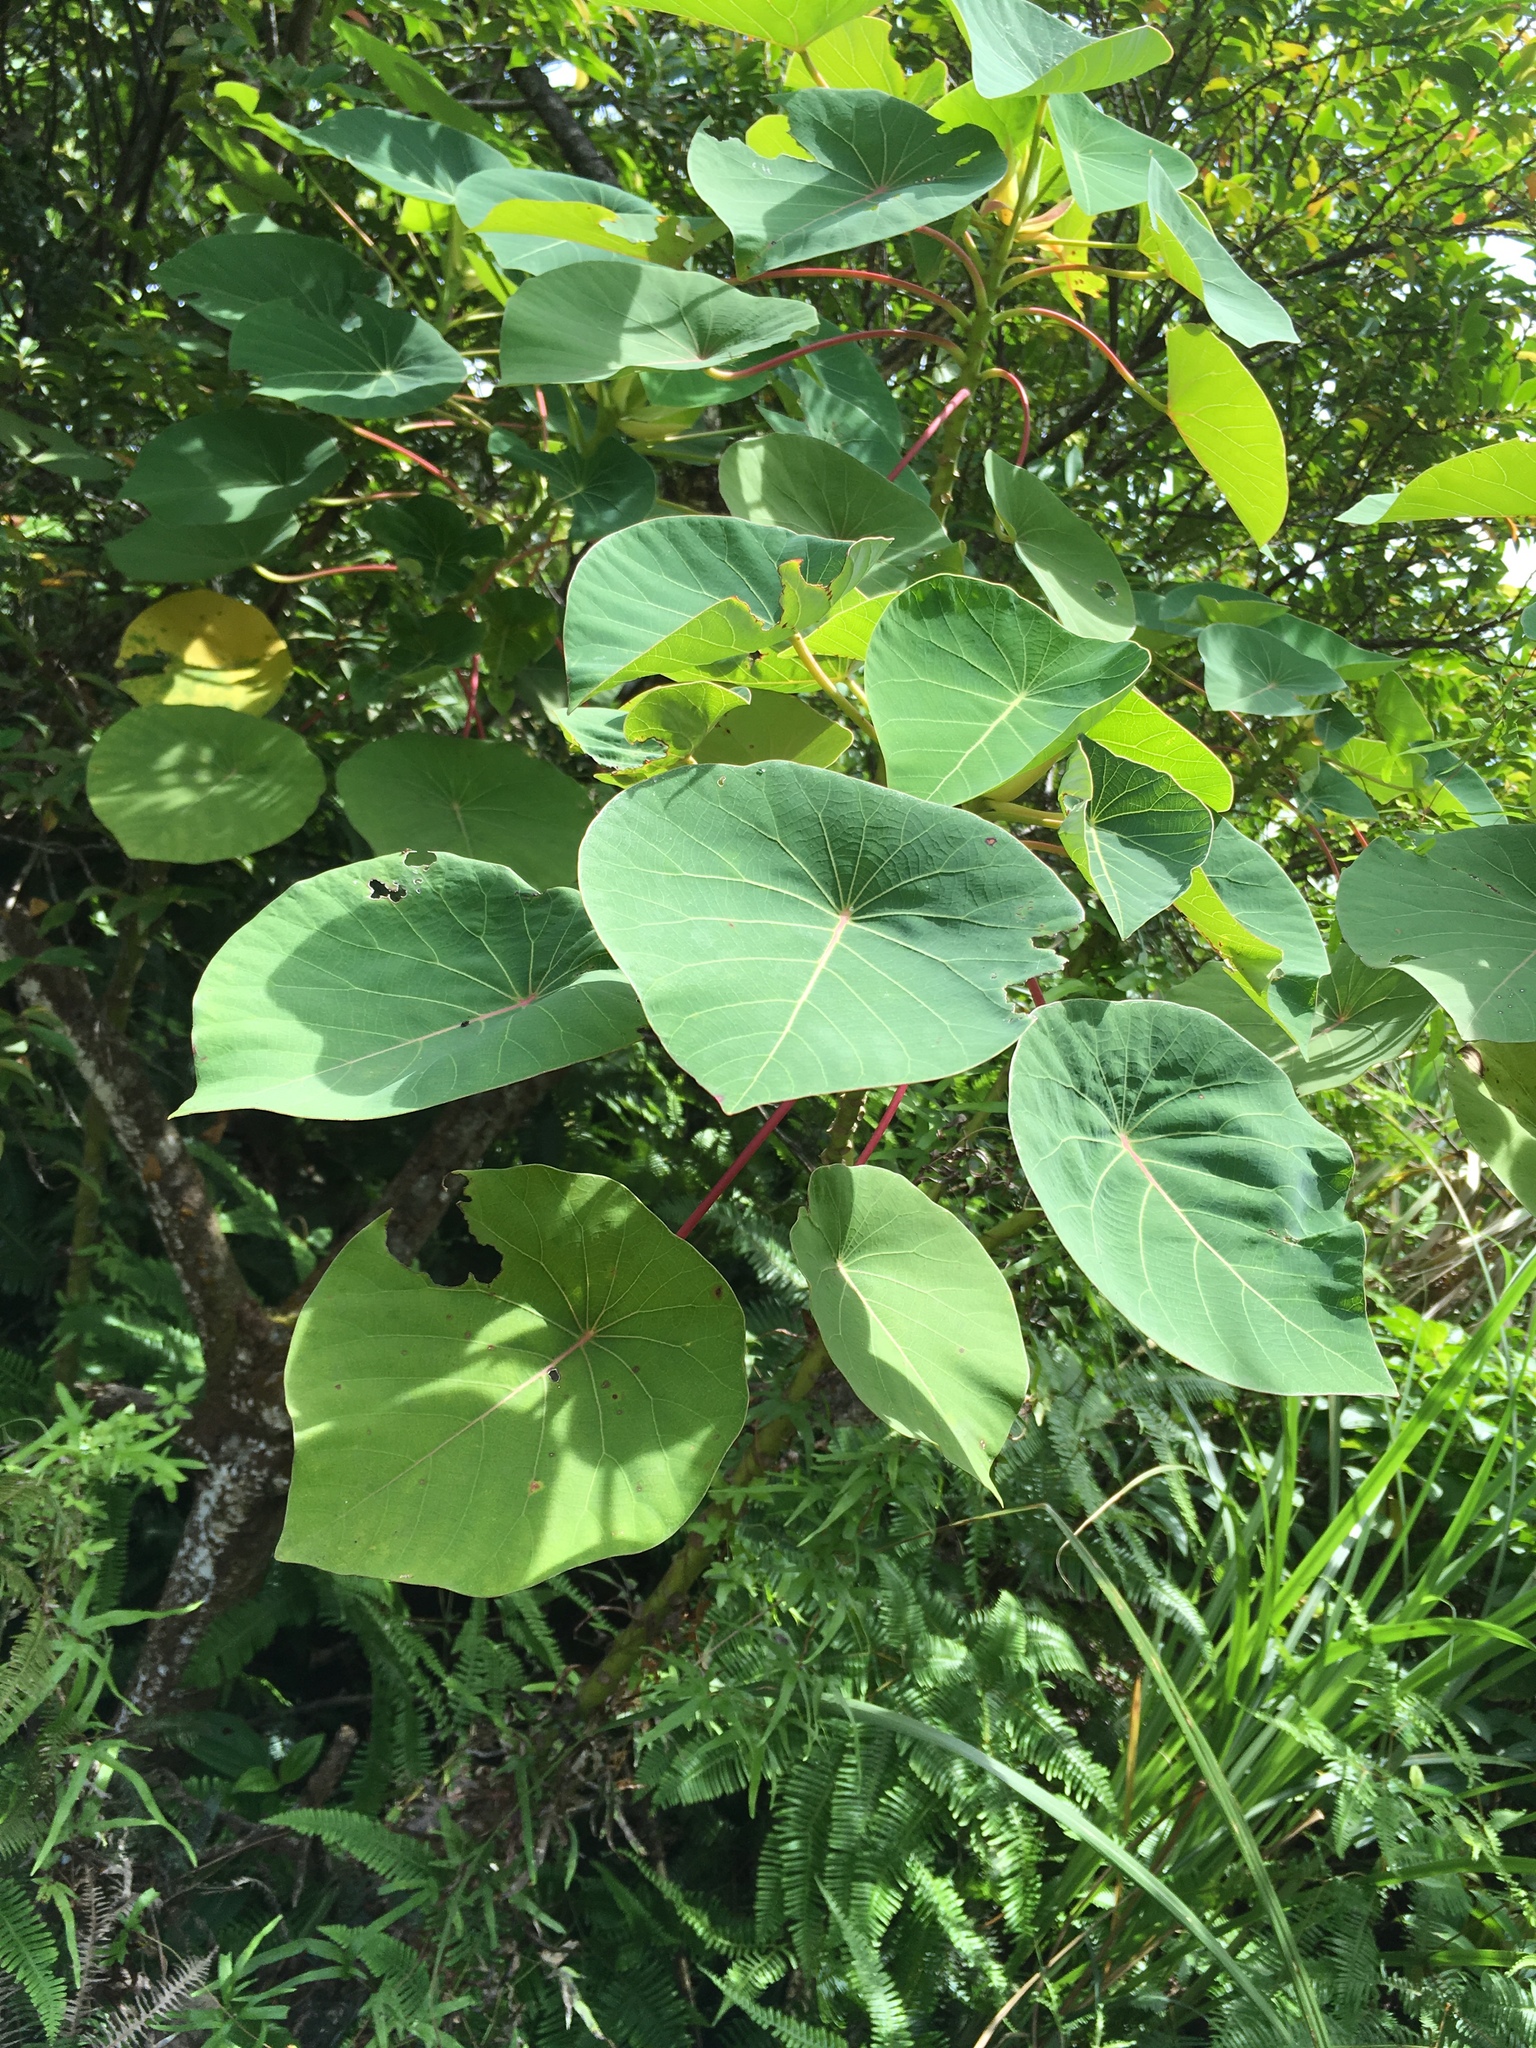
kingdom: Plantae
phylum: Tracheophyta
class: Magnoliopsida
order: Malpighiales
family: Euphorbiaceae
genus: Homalanthus
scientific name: Homalanthus fastuosus
